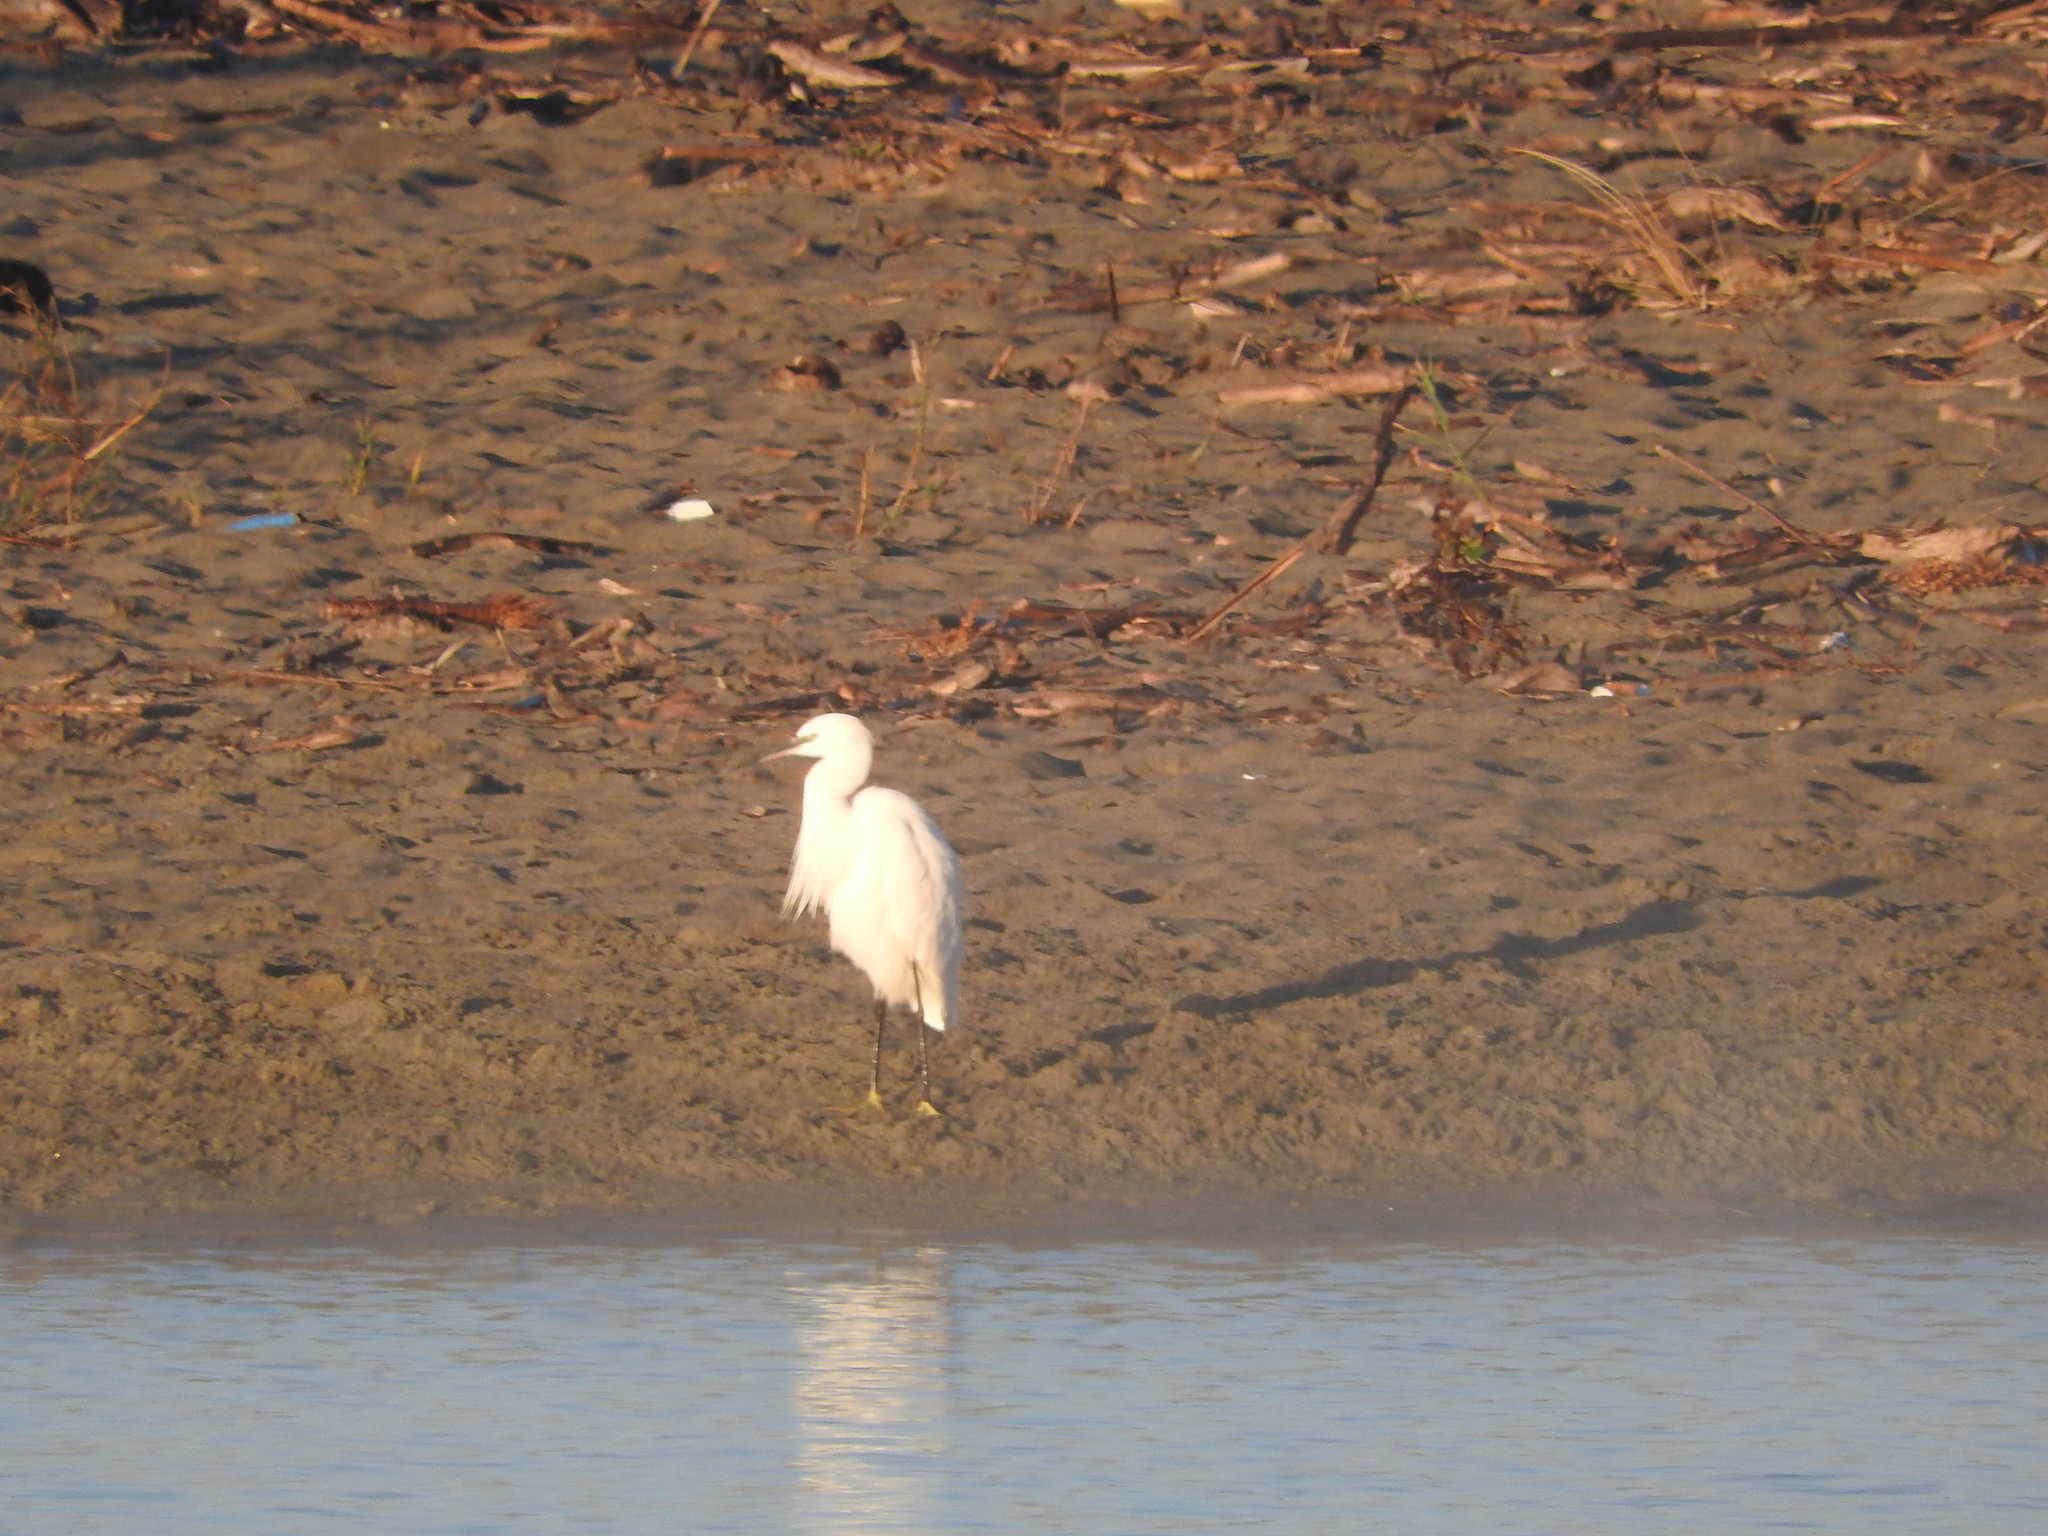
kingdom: Animalia
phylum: Chordata
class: Aves
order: Pelecaniformes
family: Ardeidae
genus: Egretta
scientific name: Egretta garzetta
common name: Little egret
